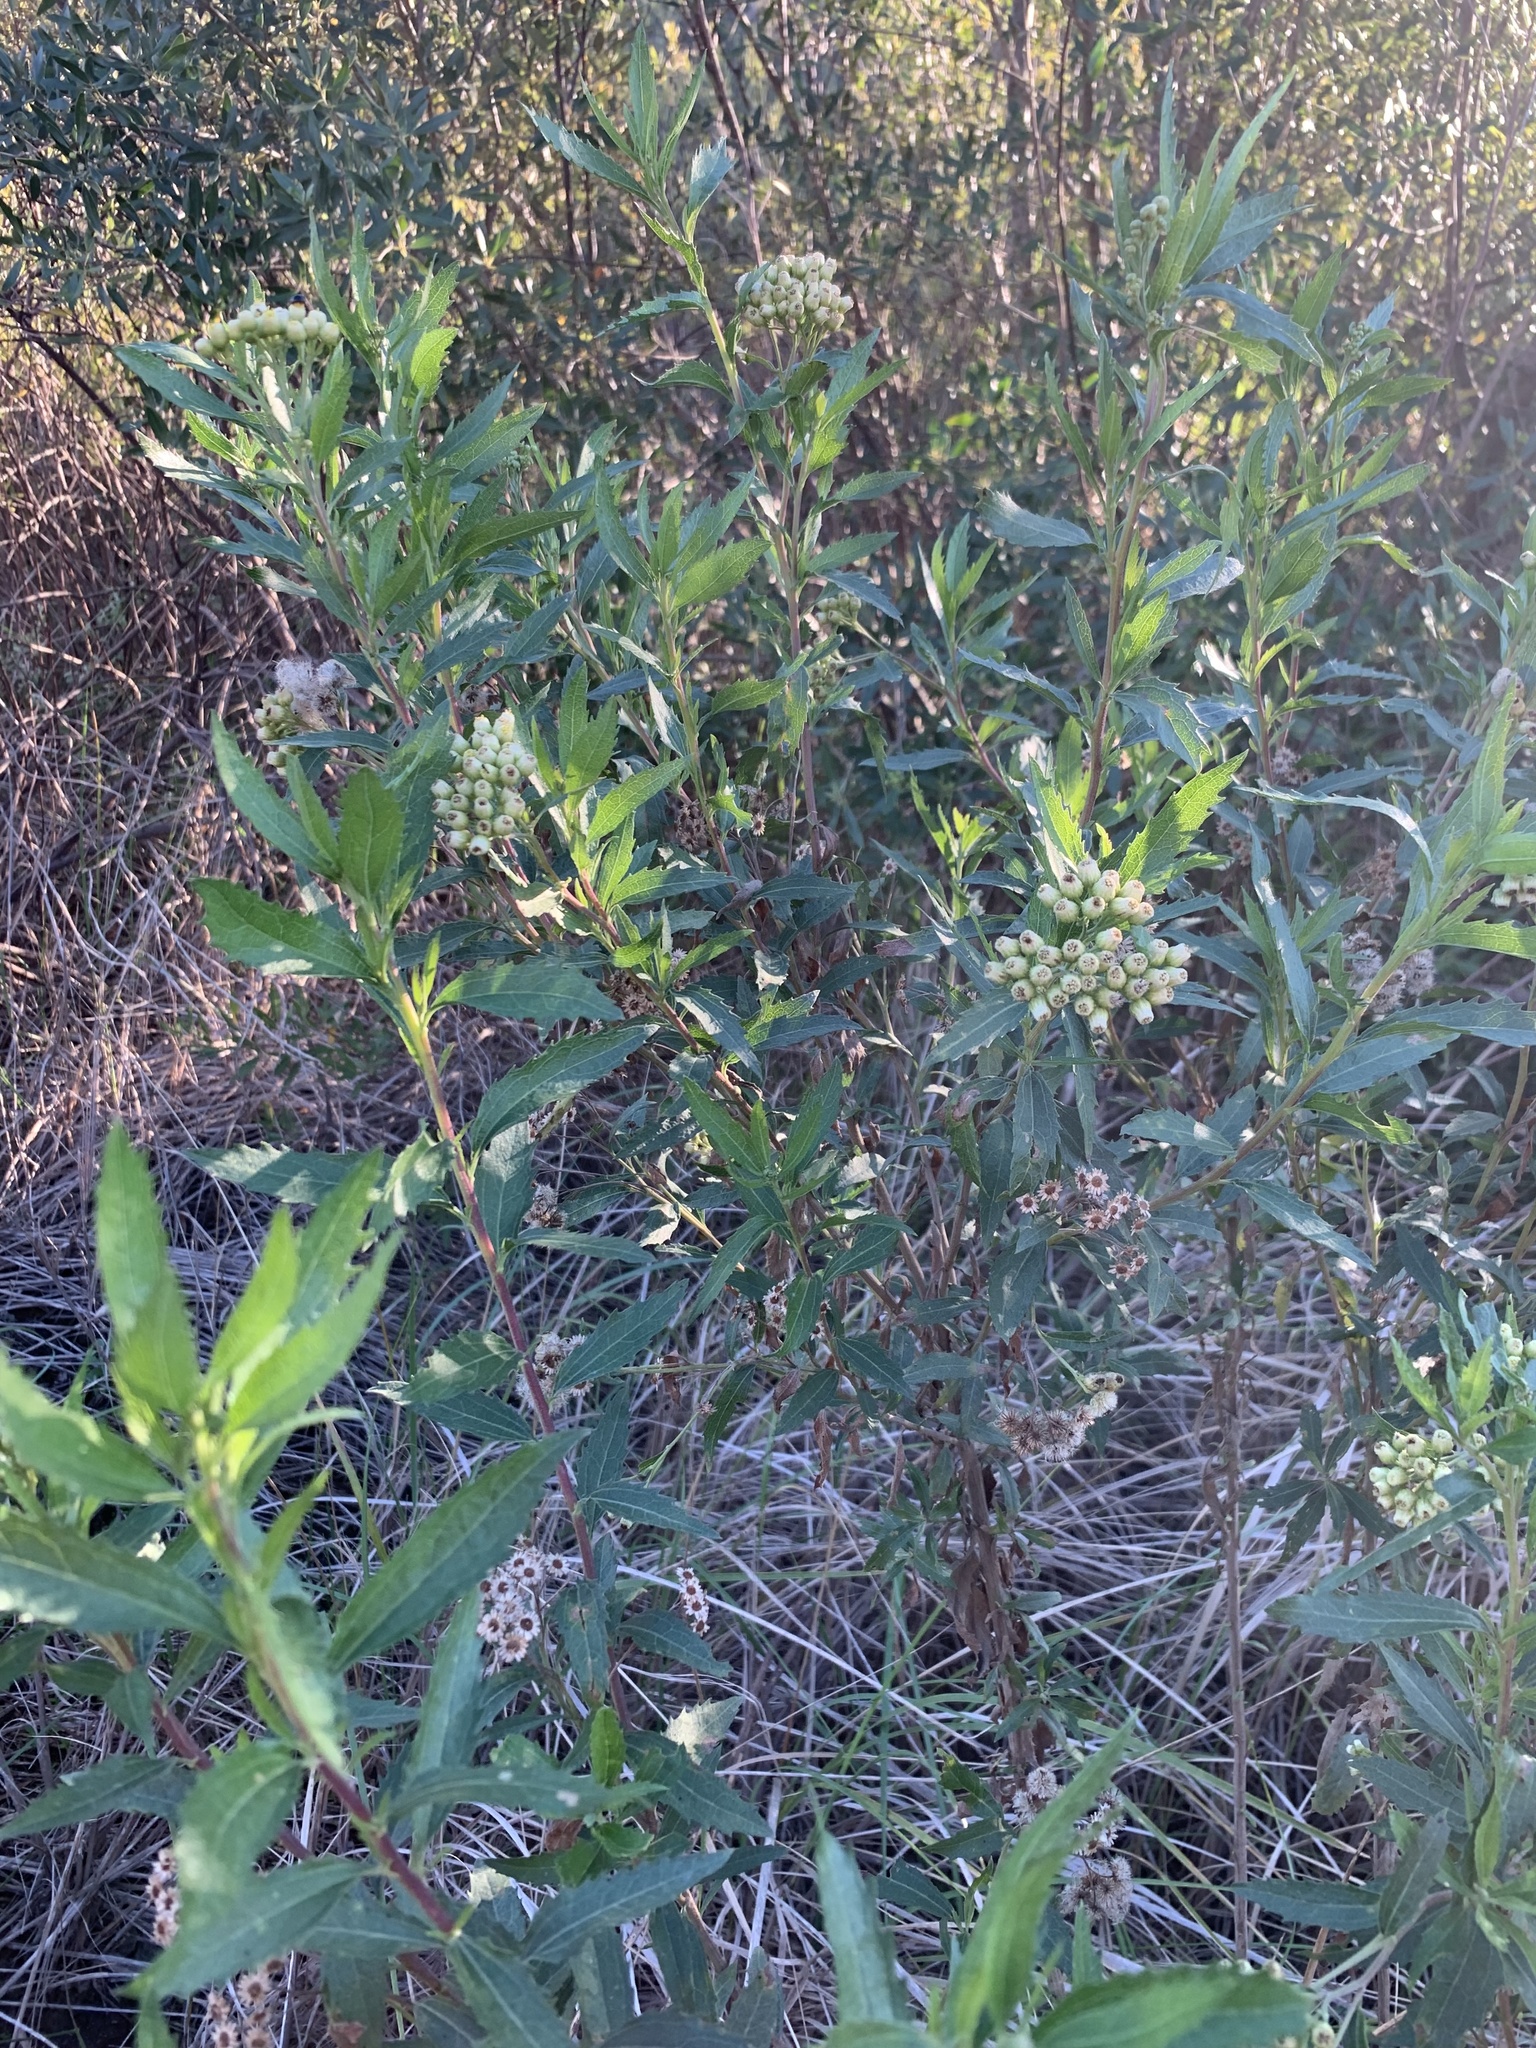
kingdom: Plantae
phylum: Tracheophyta
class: Magnoliopsida
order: Asterales
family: Asteraceae
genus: Nidorella
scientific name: Nidorella ivifolia
